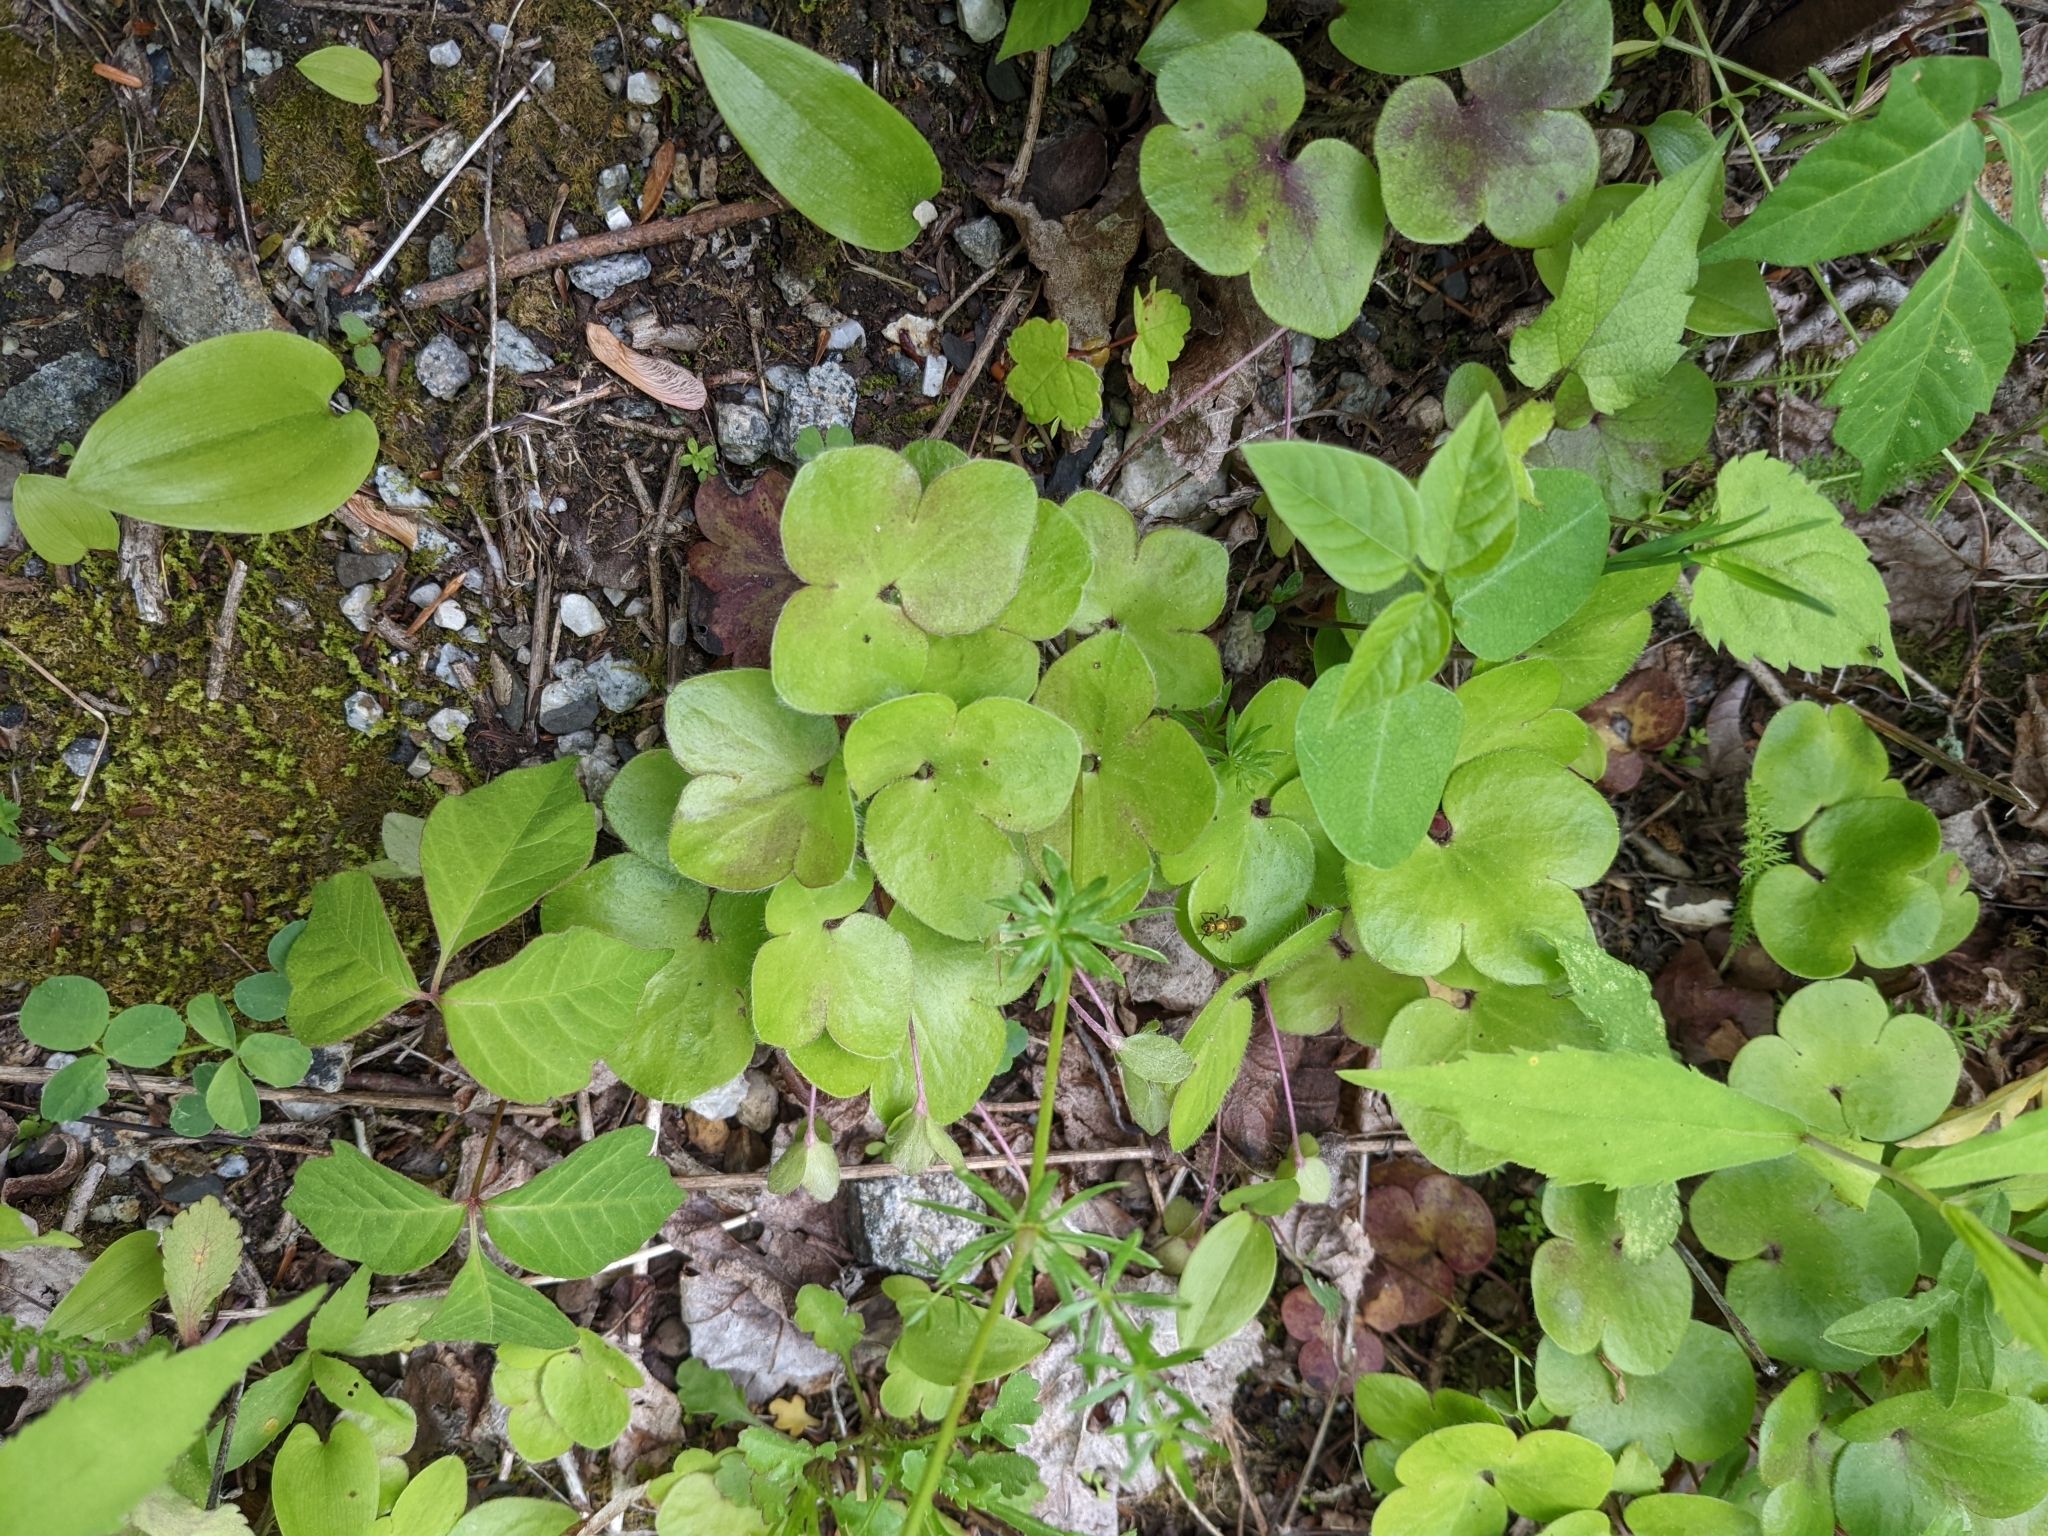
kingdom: Plantae
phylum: Tracheophyta
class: Magnoliopsida
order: Ranunculales
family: Ranunculaceae
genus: Hepatica
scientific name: Hepatica americana
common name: American hepatica
